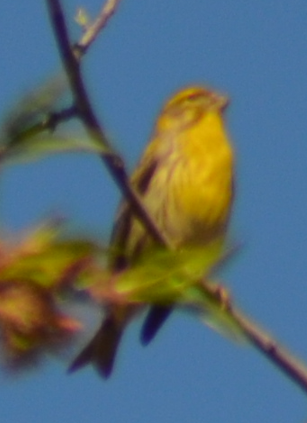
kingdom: Animalia
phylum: Chordata
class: Aves
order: Passeriformes
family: Fringillidae
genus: Serinus
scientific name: Serinus serinus
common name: European serin
